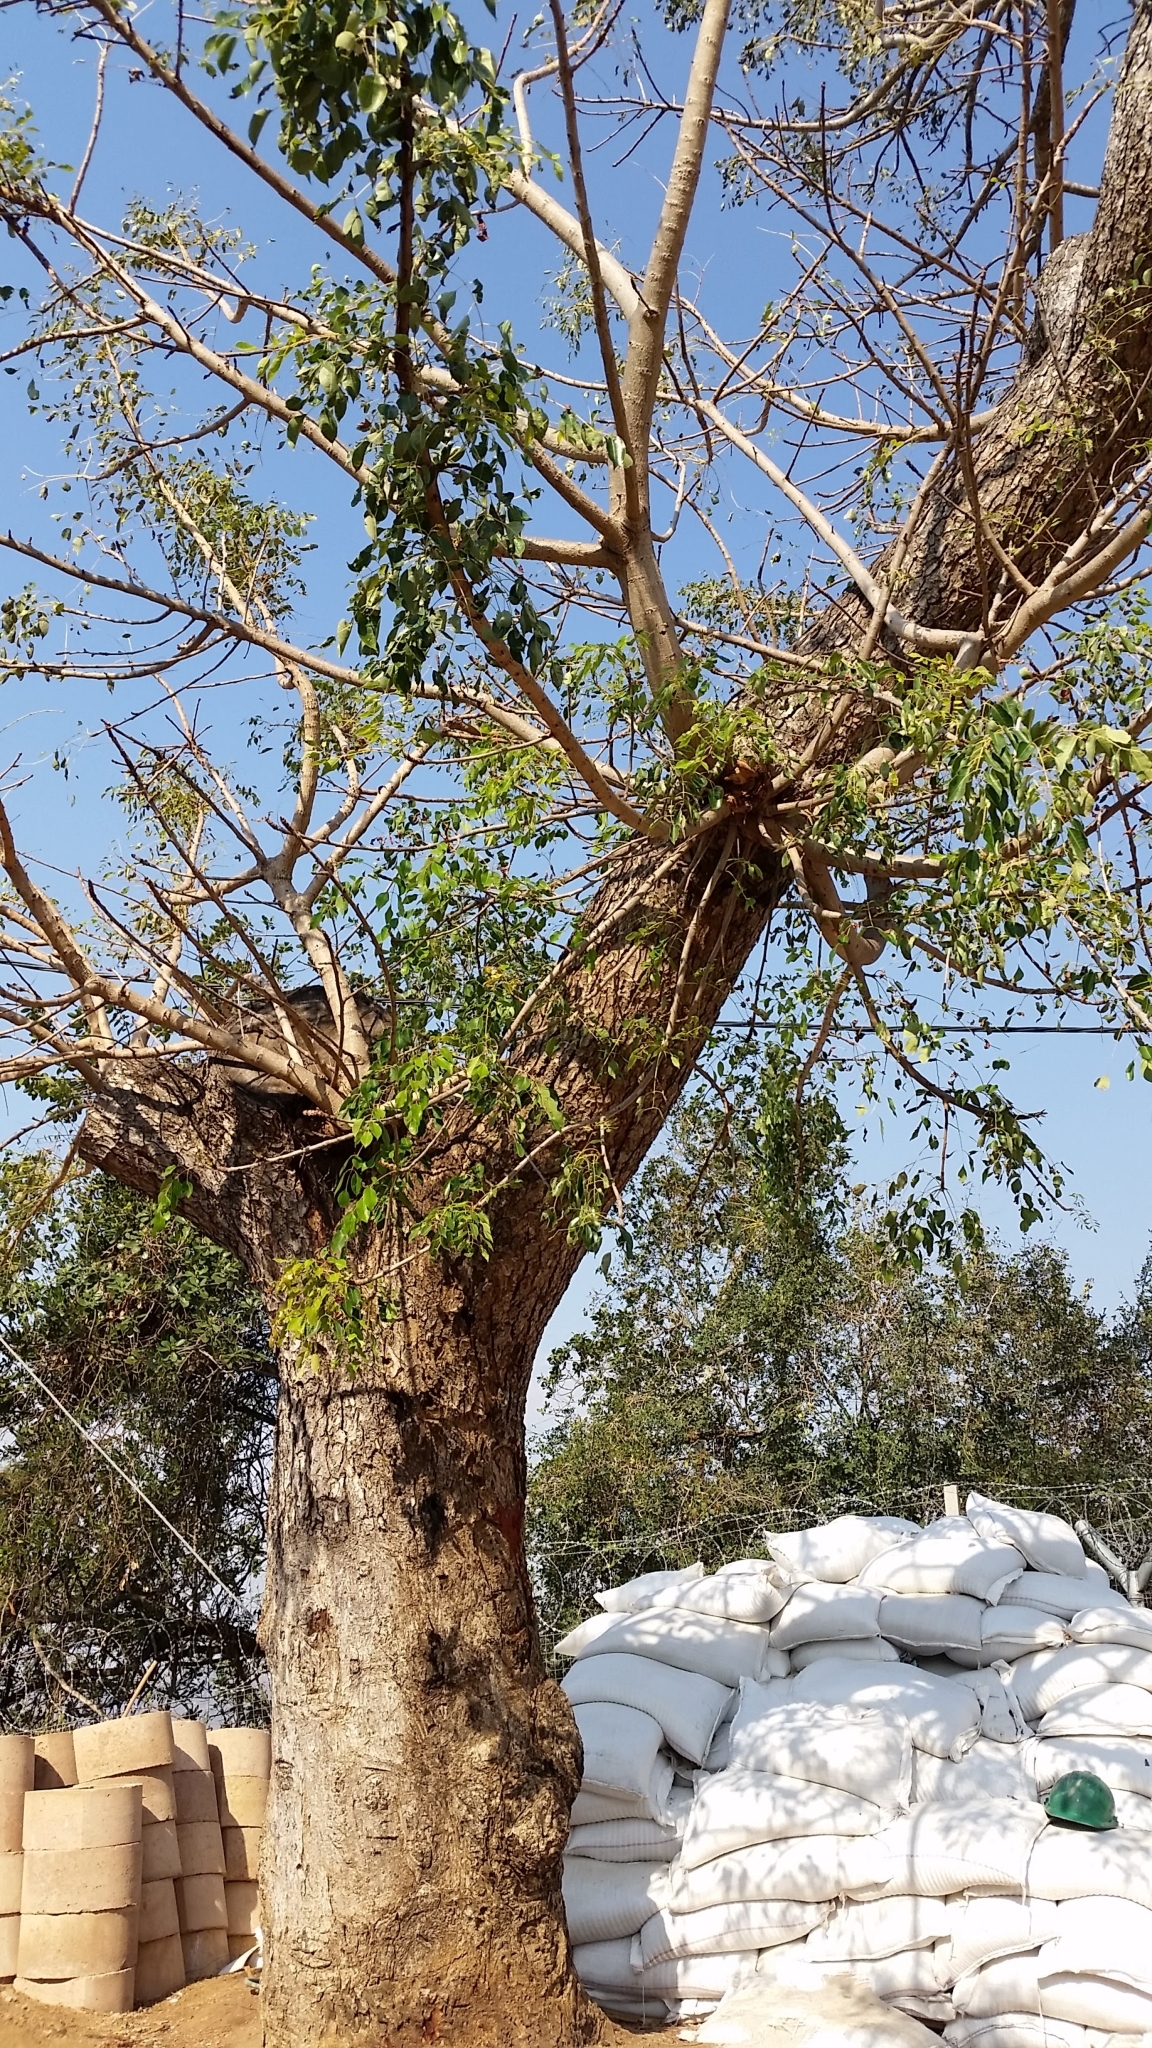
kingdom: Plantae
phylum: Tracheophyta
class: Magnoliopsida
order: Sapindales
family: Anacardiaceae
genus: Sclerocarya
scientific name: Sclerocarya birrea
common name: Marula
